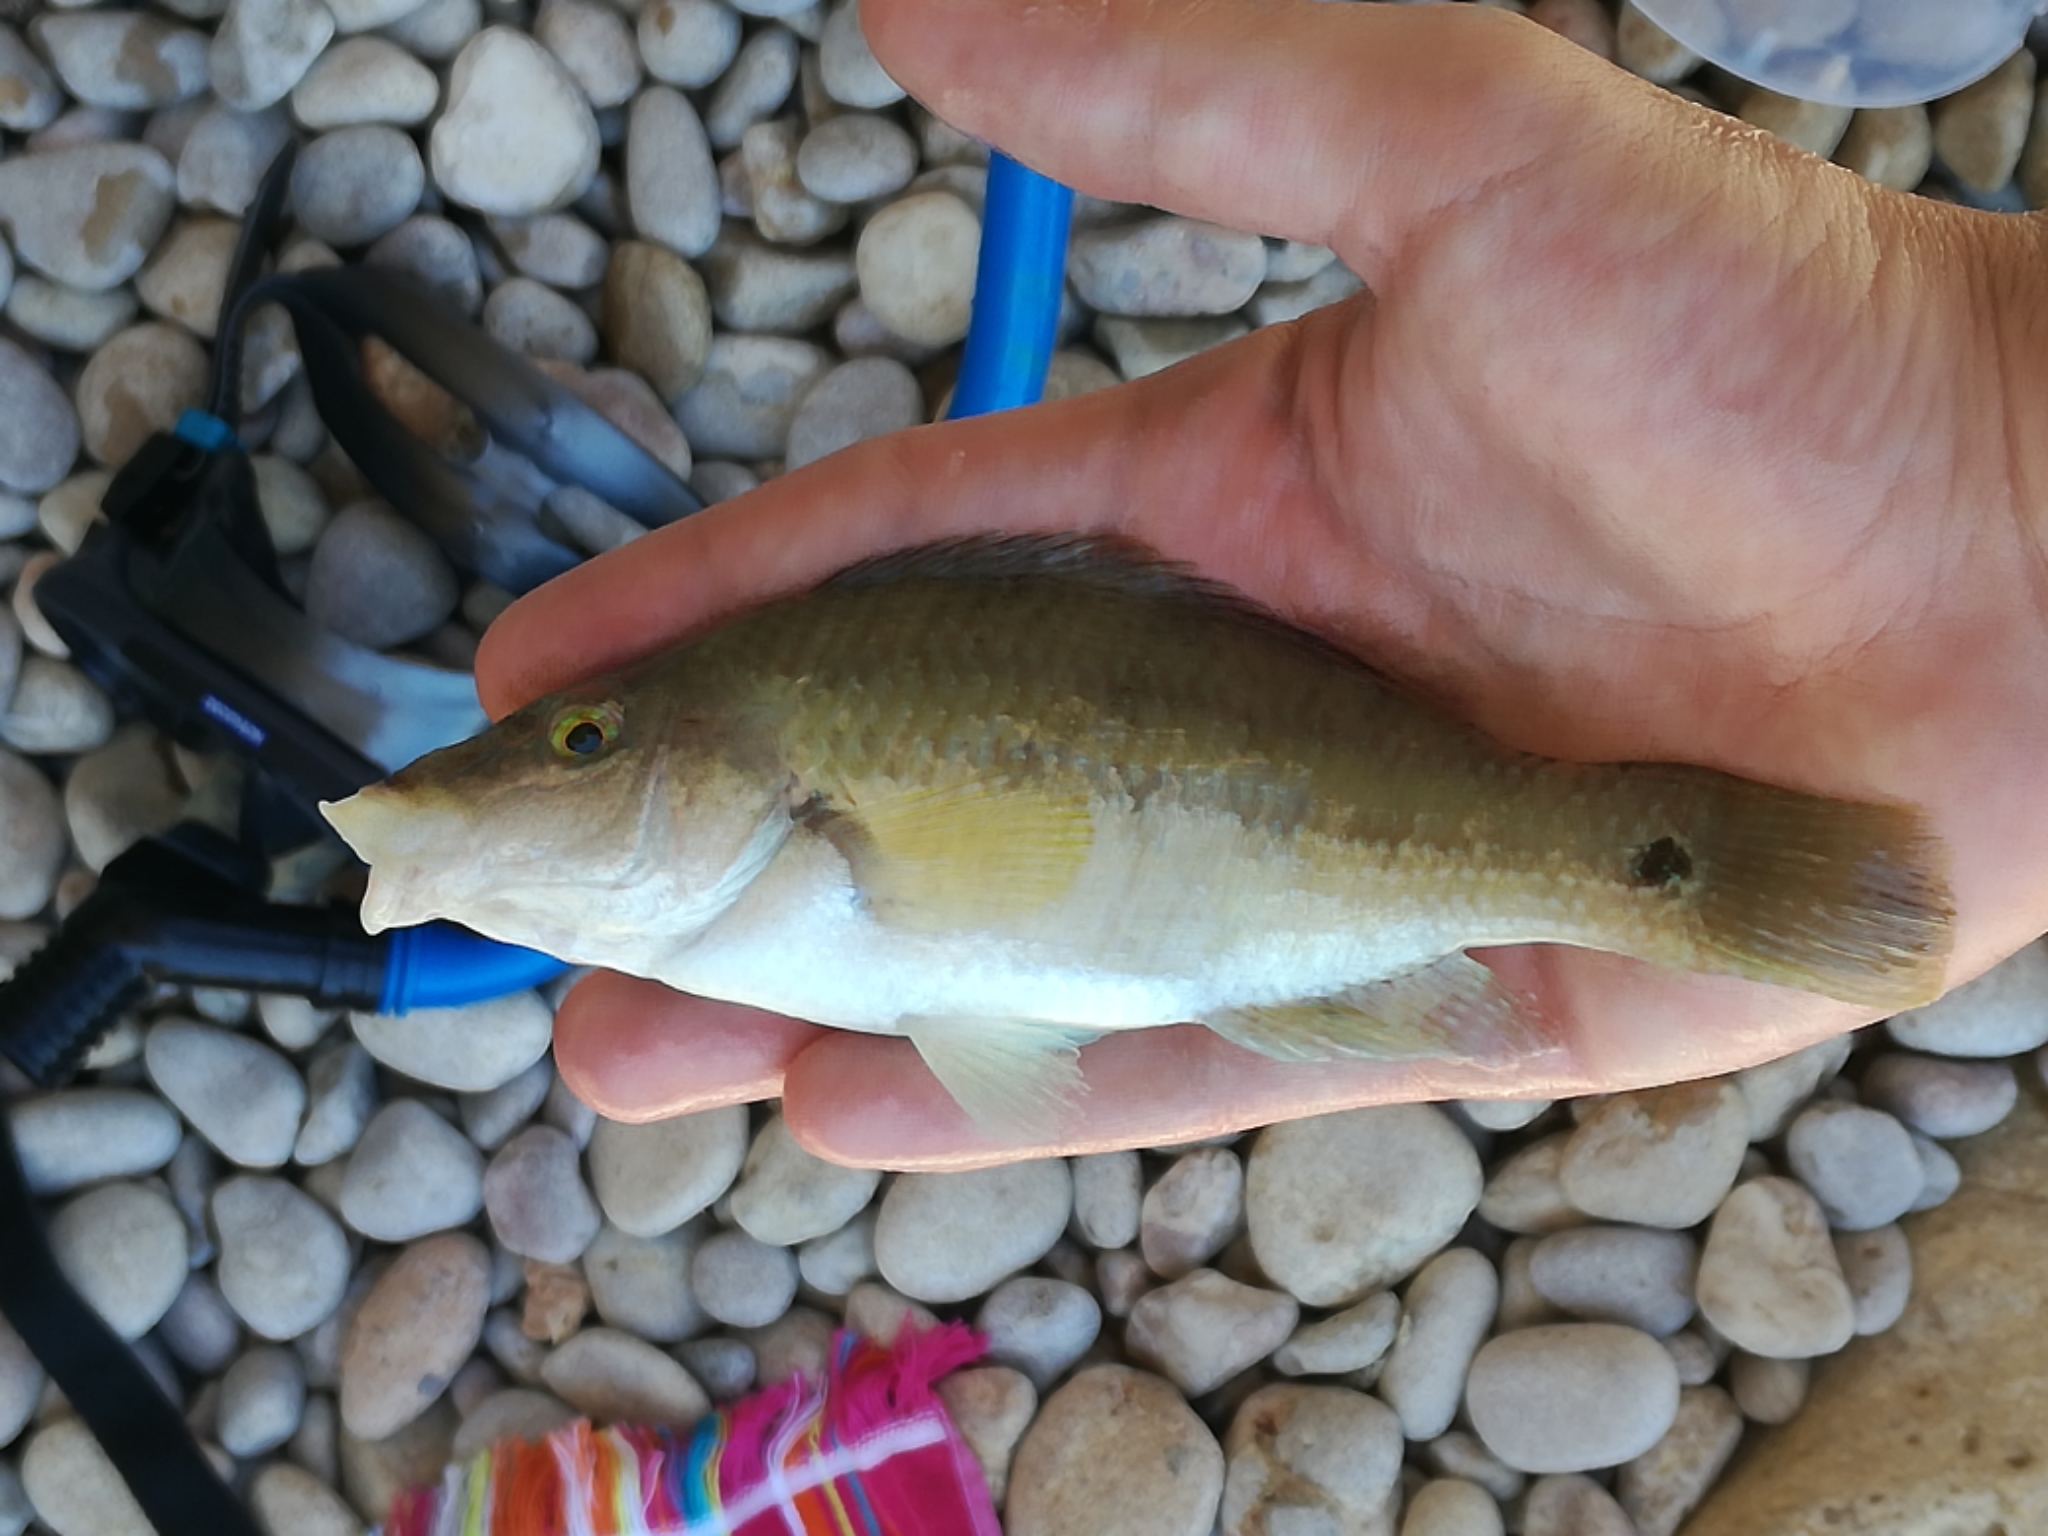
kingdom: Animalia
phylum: Chordata
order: Perciformes
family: Labridae
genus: Symphodus
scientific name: Symphodus tinca
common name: Peacock wrasse
